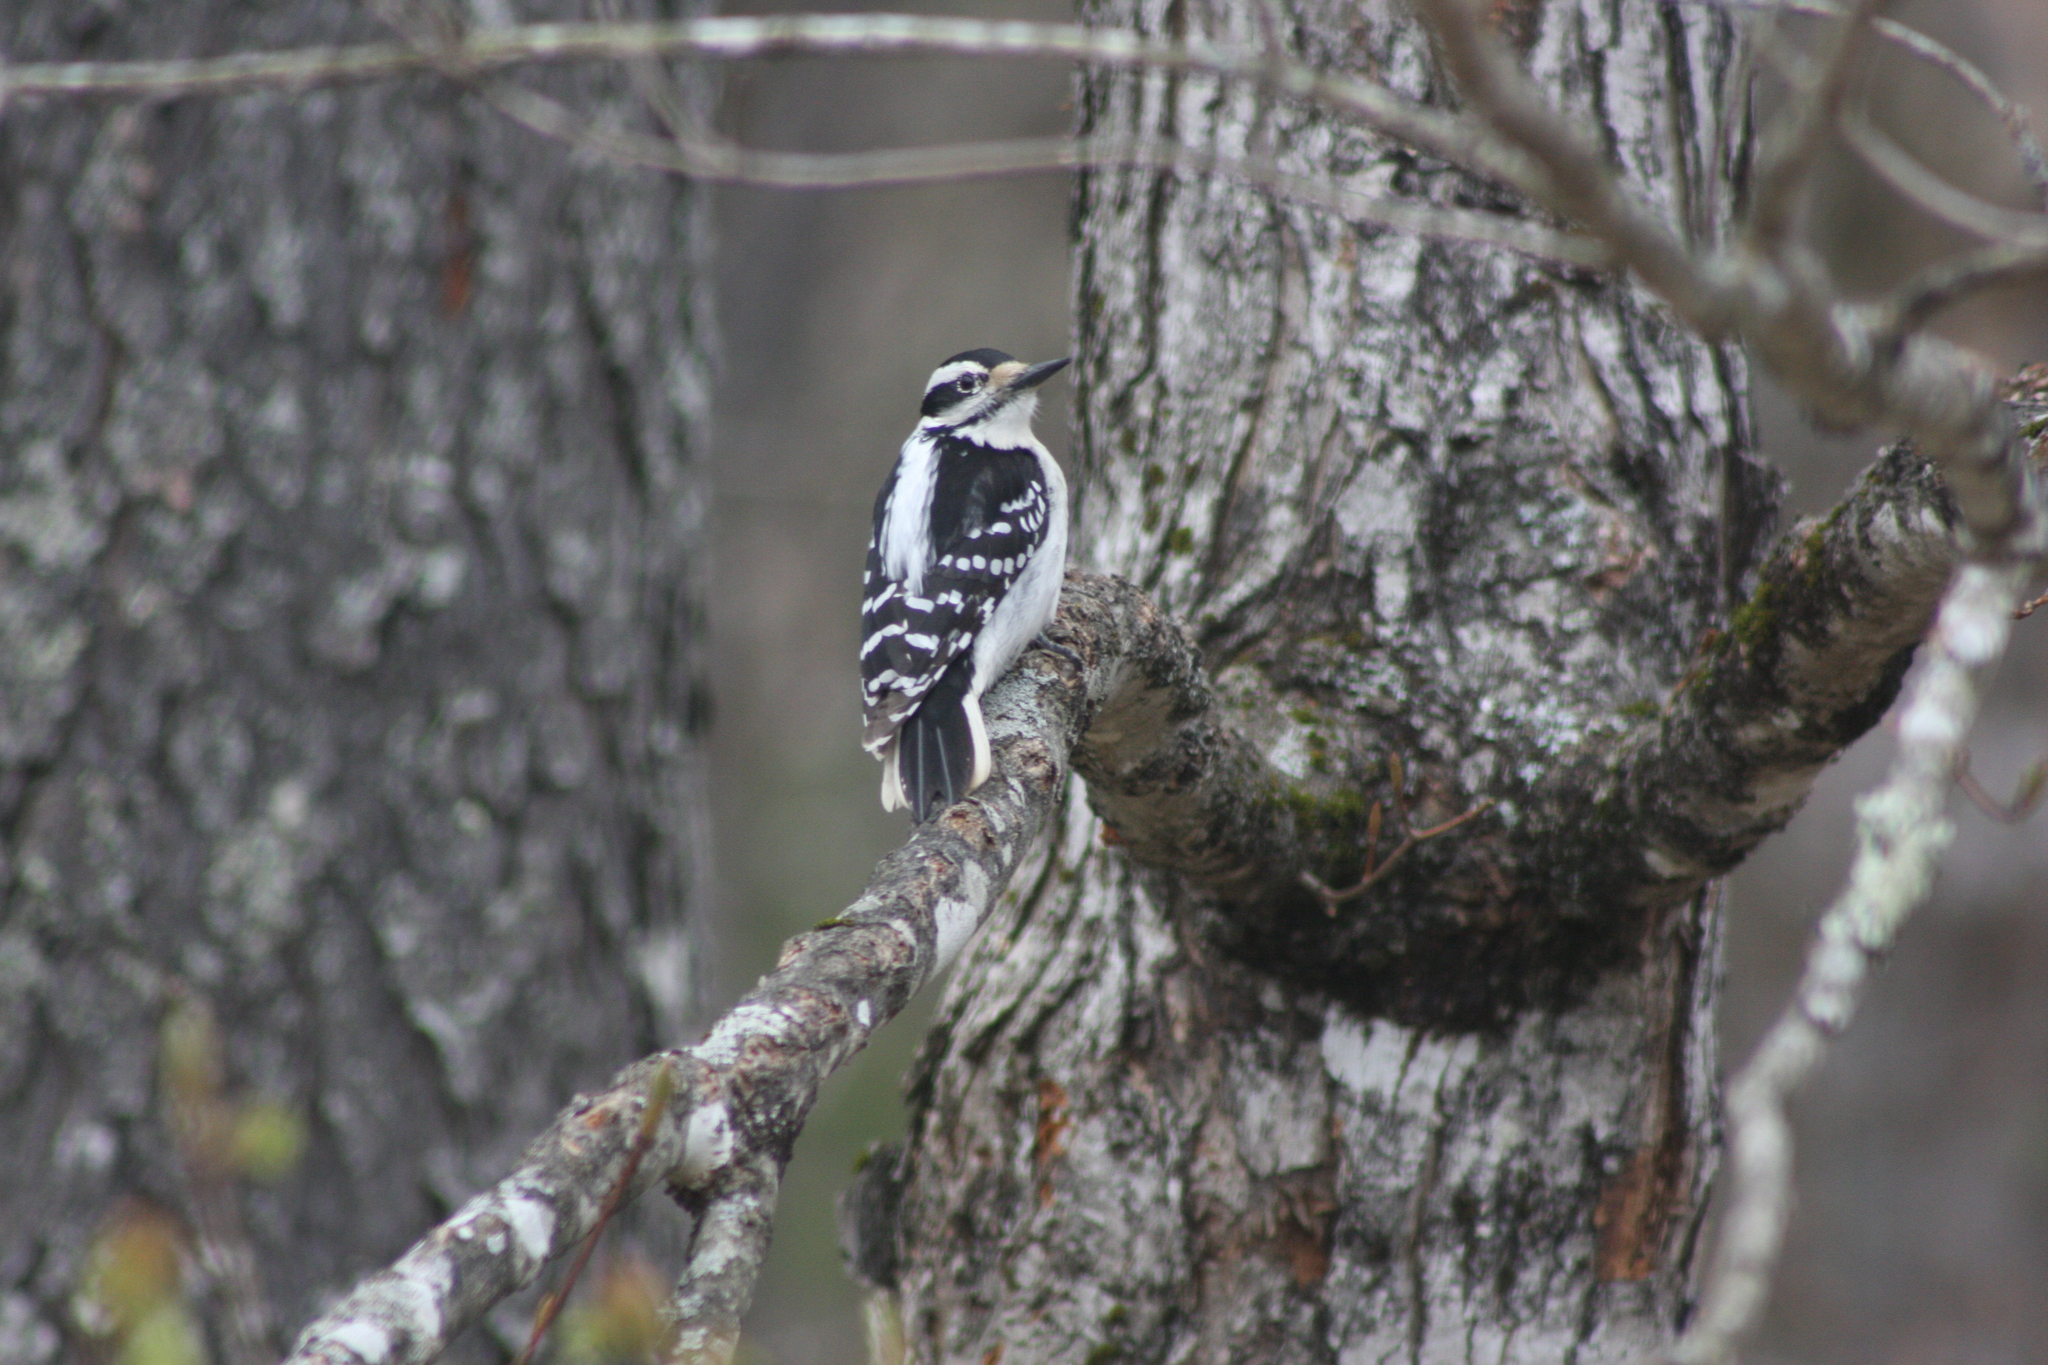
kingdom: Animalia
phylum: Chordata
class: Aves
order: Piciformes
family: Picidae
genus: Leuconotopicus
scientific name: Leuconotopicus villosus
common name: Hairy woodpecker
